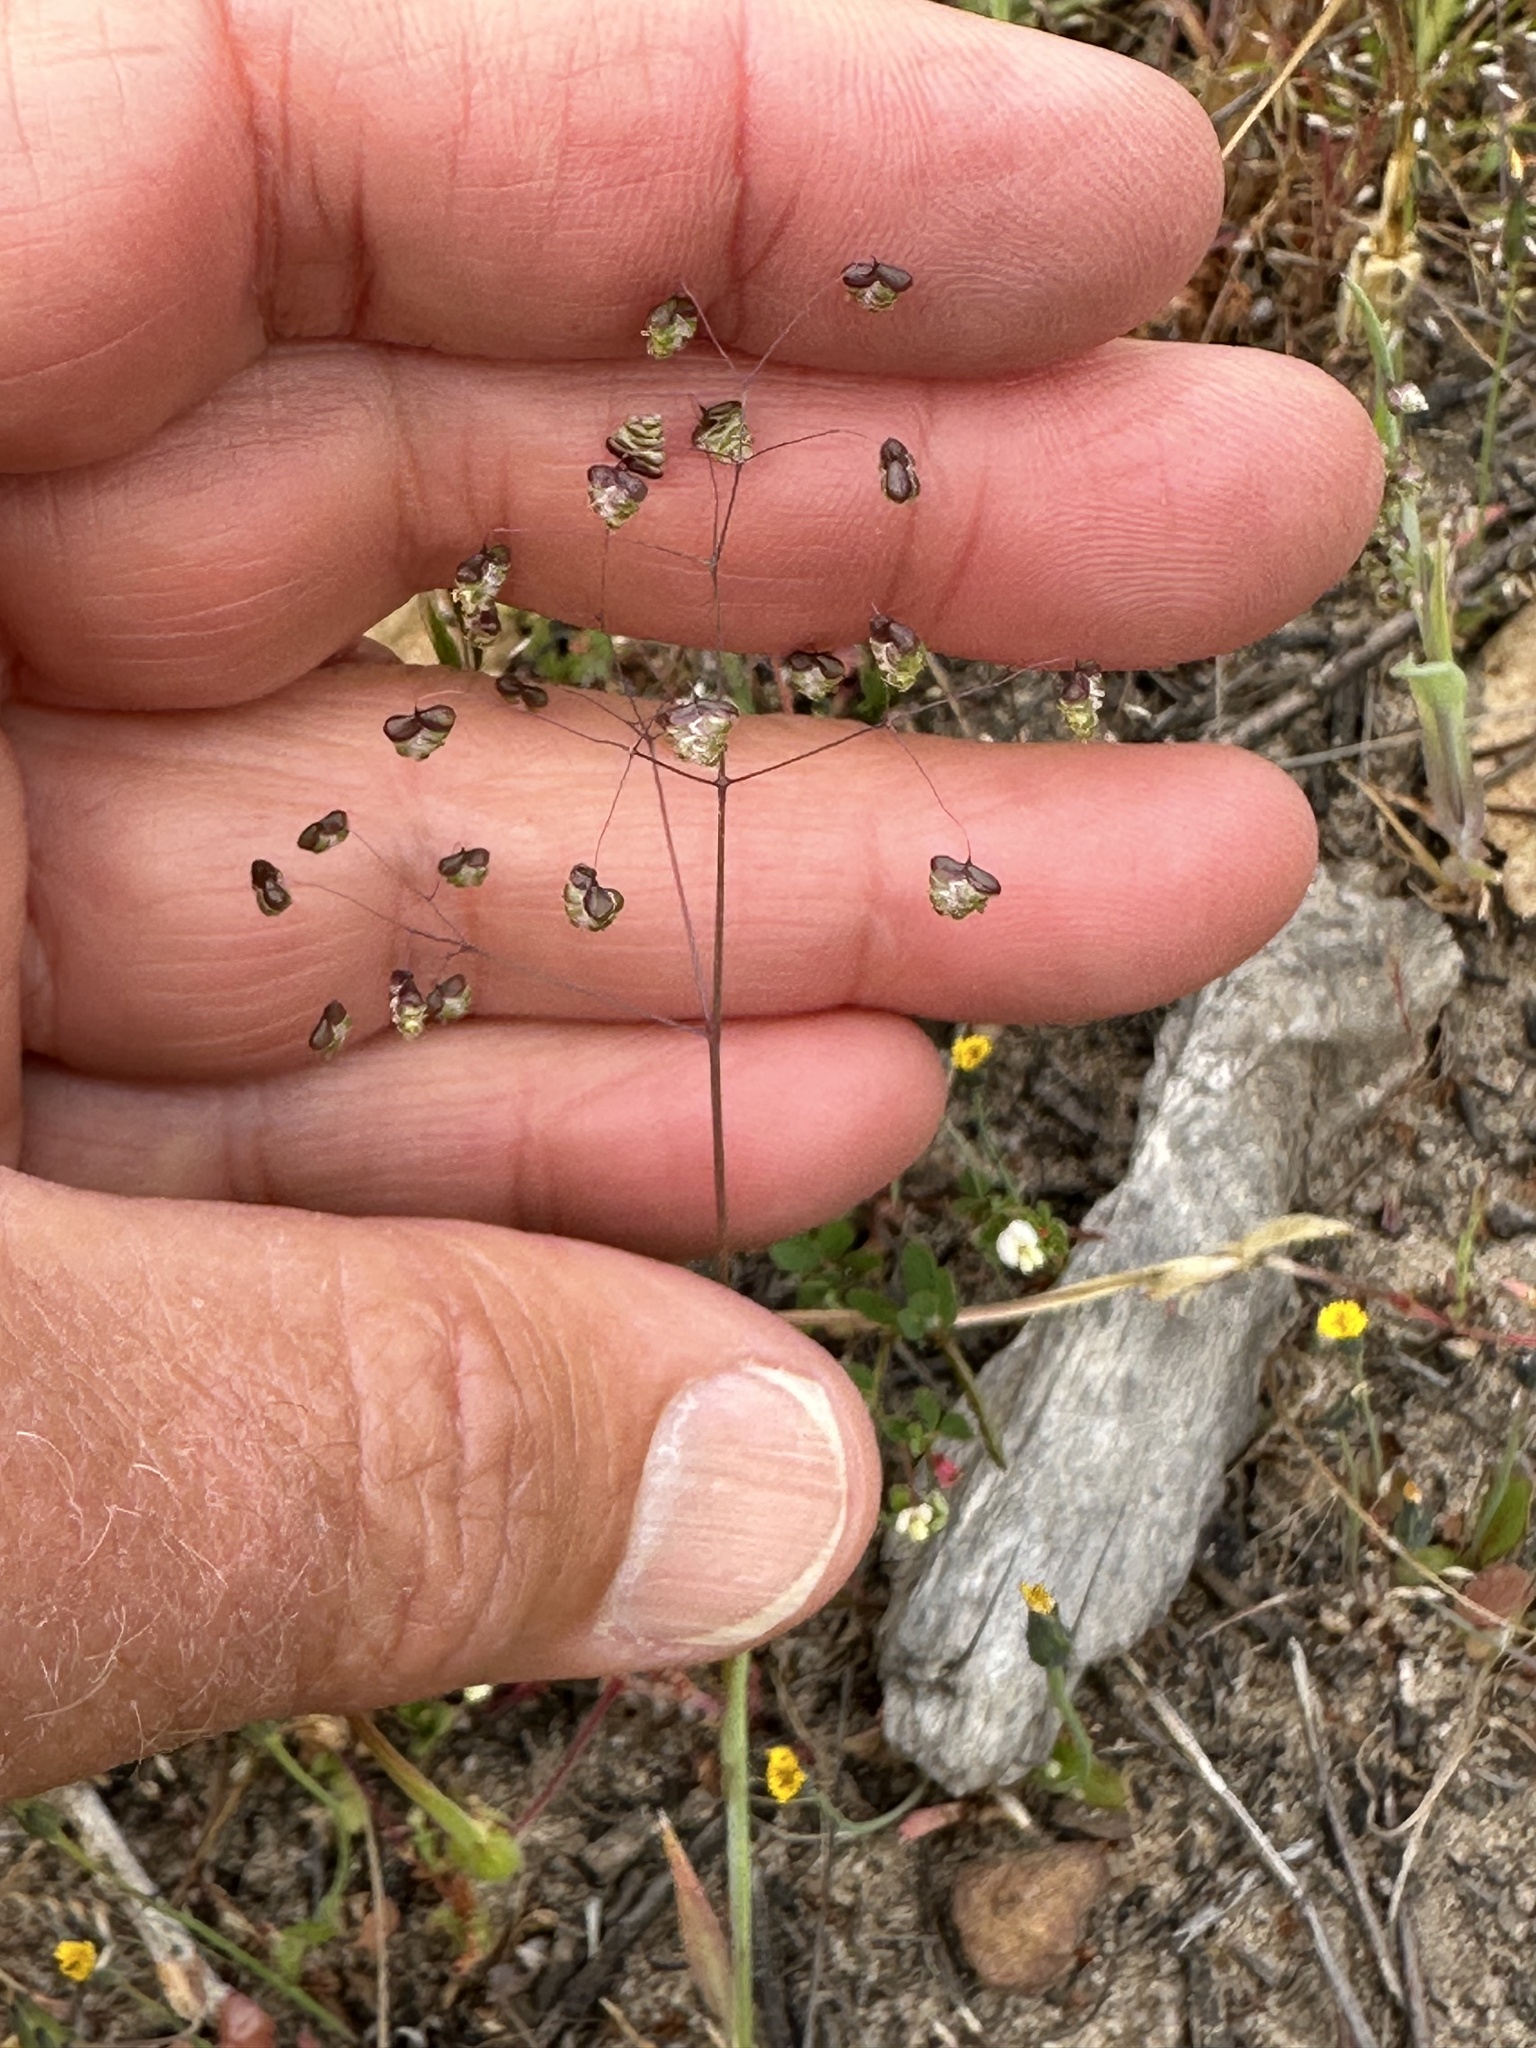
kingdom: Plantae
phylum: Tracheophyta
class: Liliopsida
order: Poales
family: Poaceae
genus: Briza
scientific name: Briza minor
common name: Lesser quaking-grass
